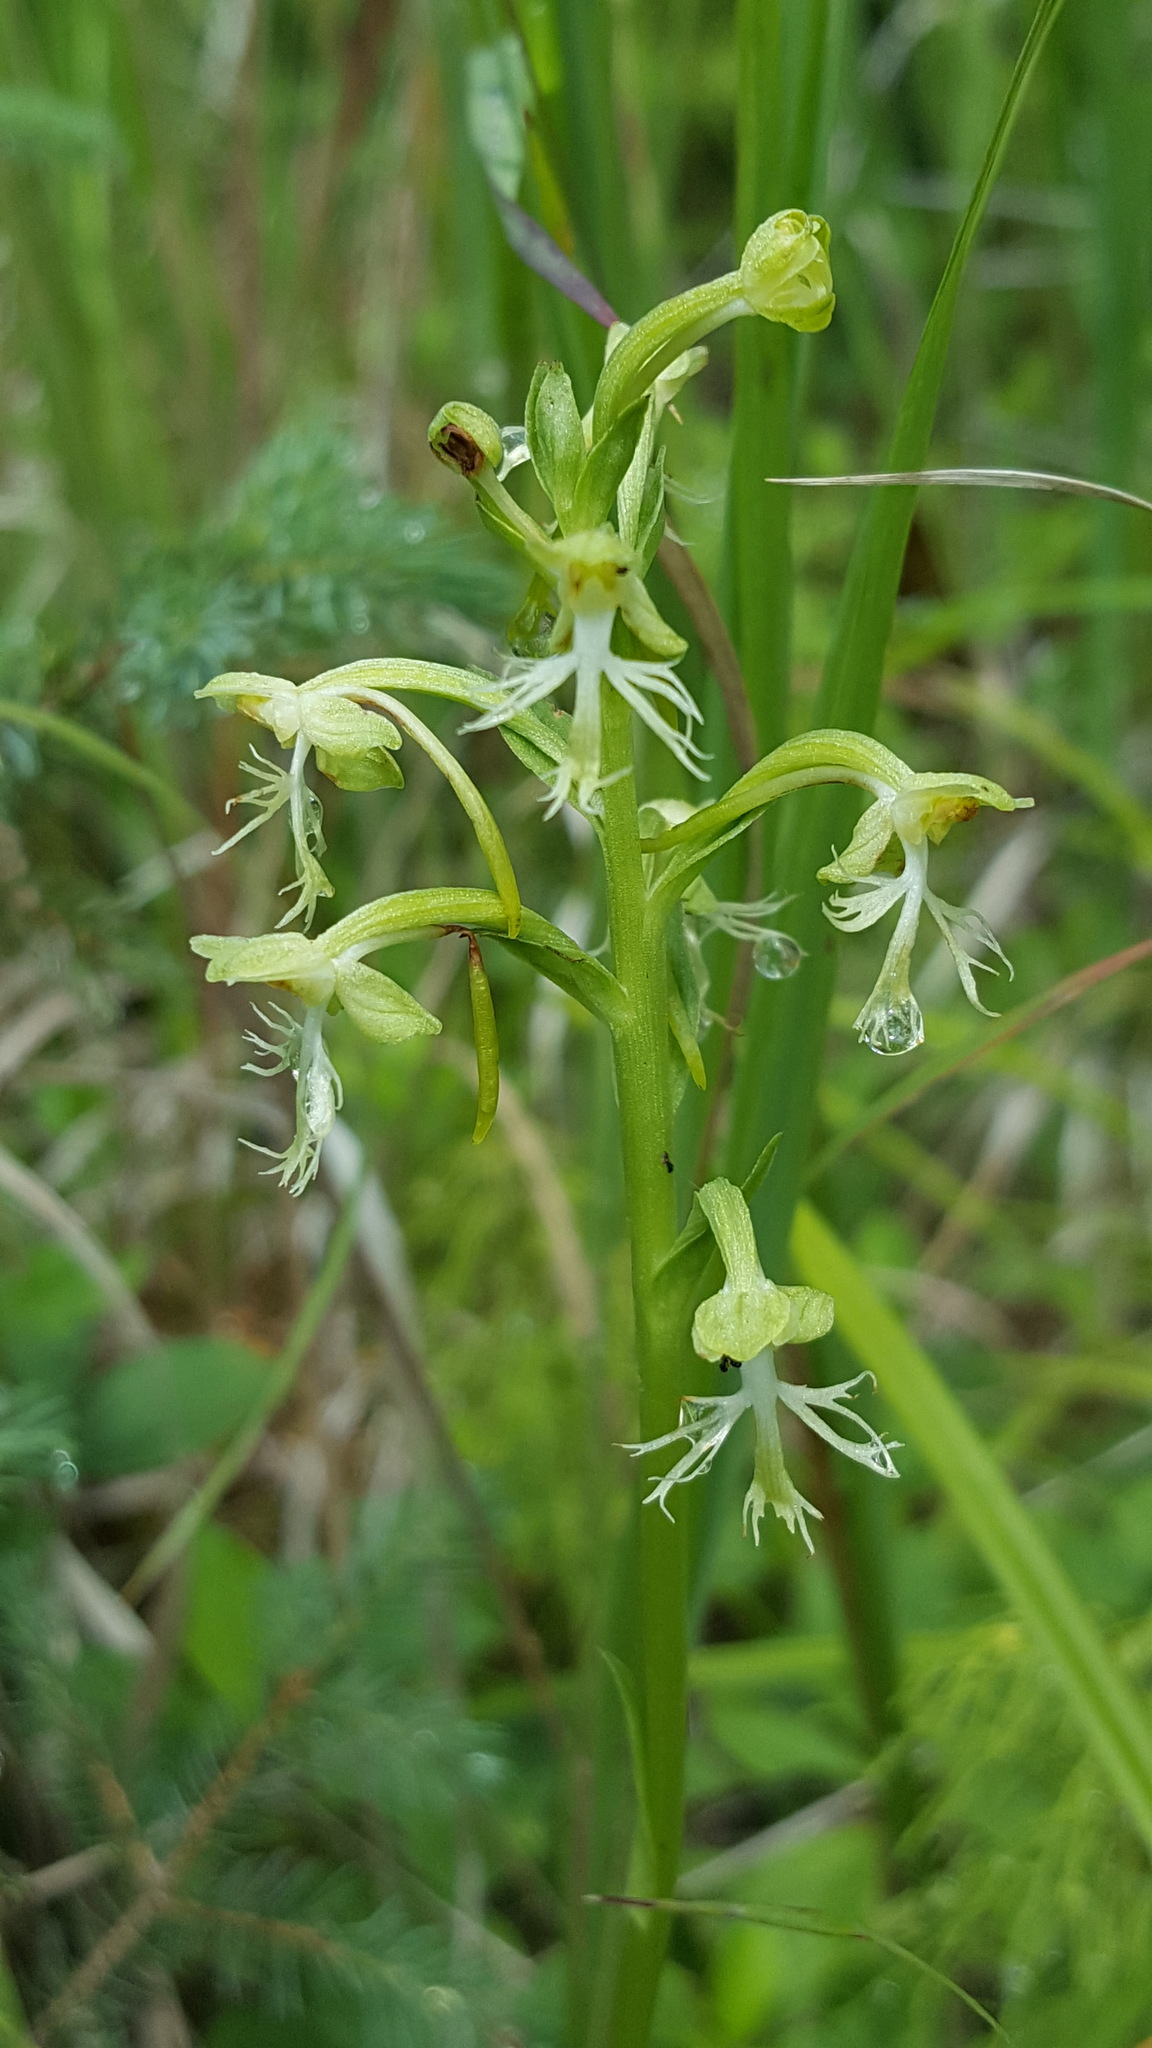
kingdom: Plantae
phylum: Tracheophyta
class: Liliopsida
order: Asparagales
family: Orchidaceae
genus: Platanthera
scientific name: Platanthera lacera
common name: Green fringed orchid
